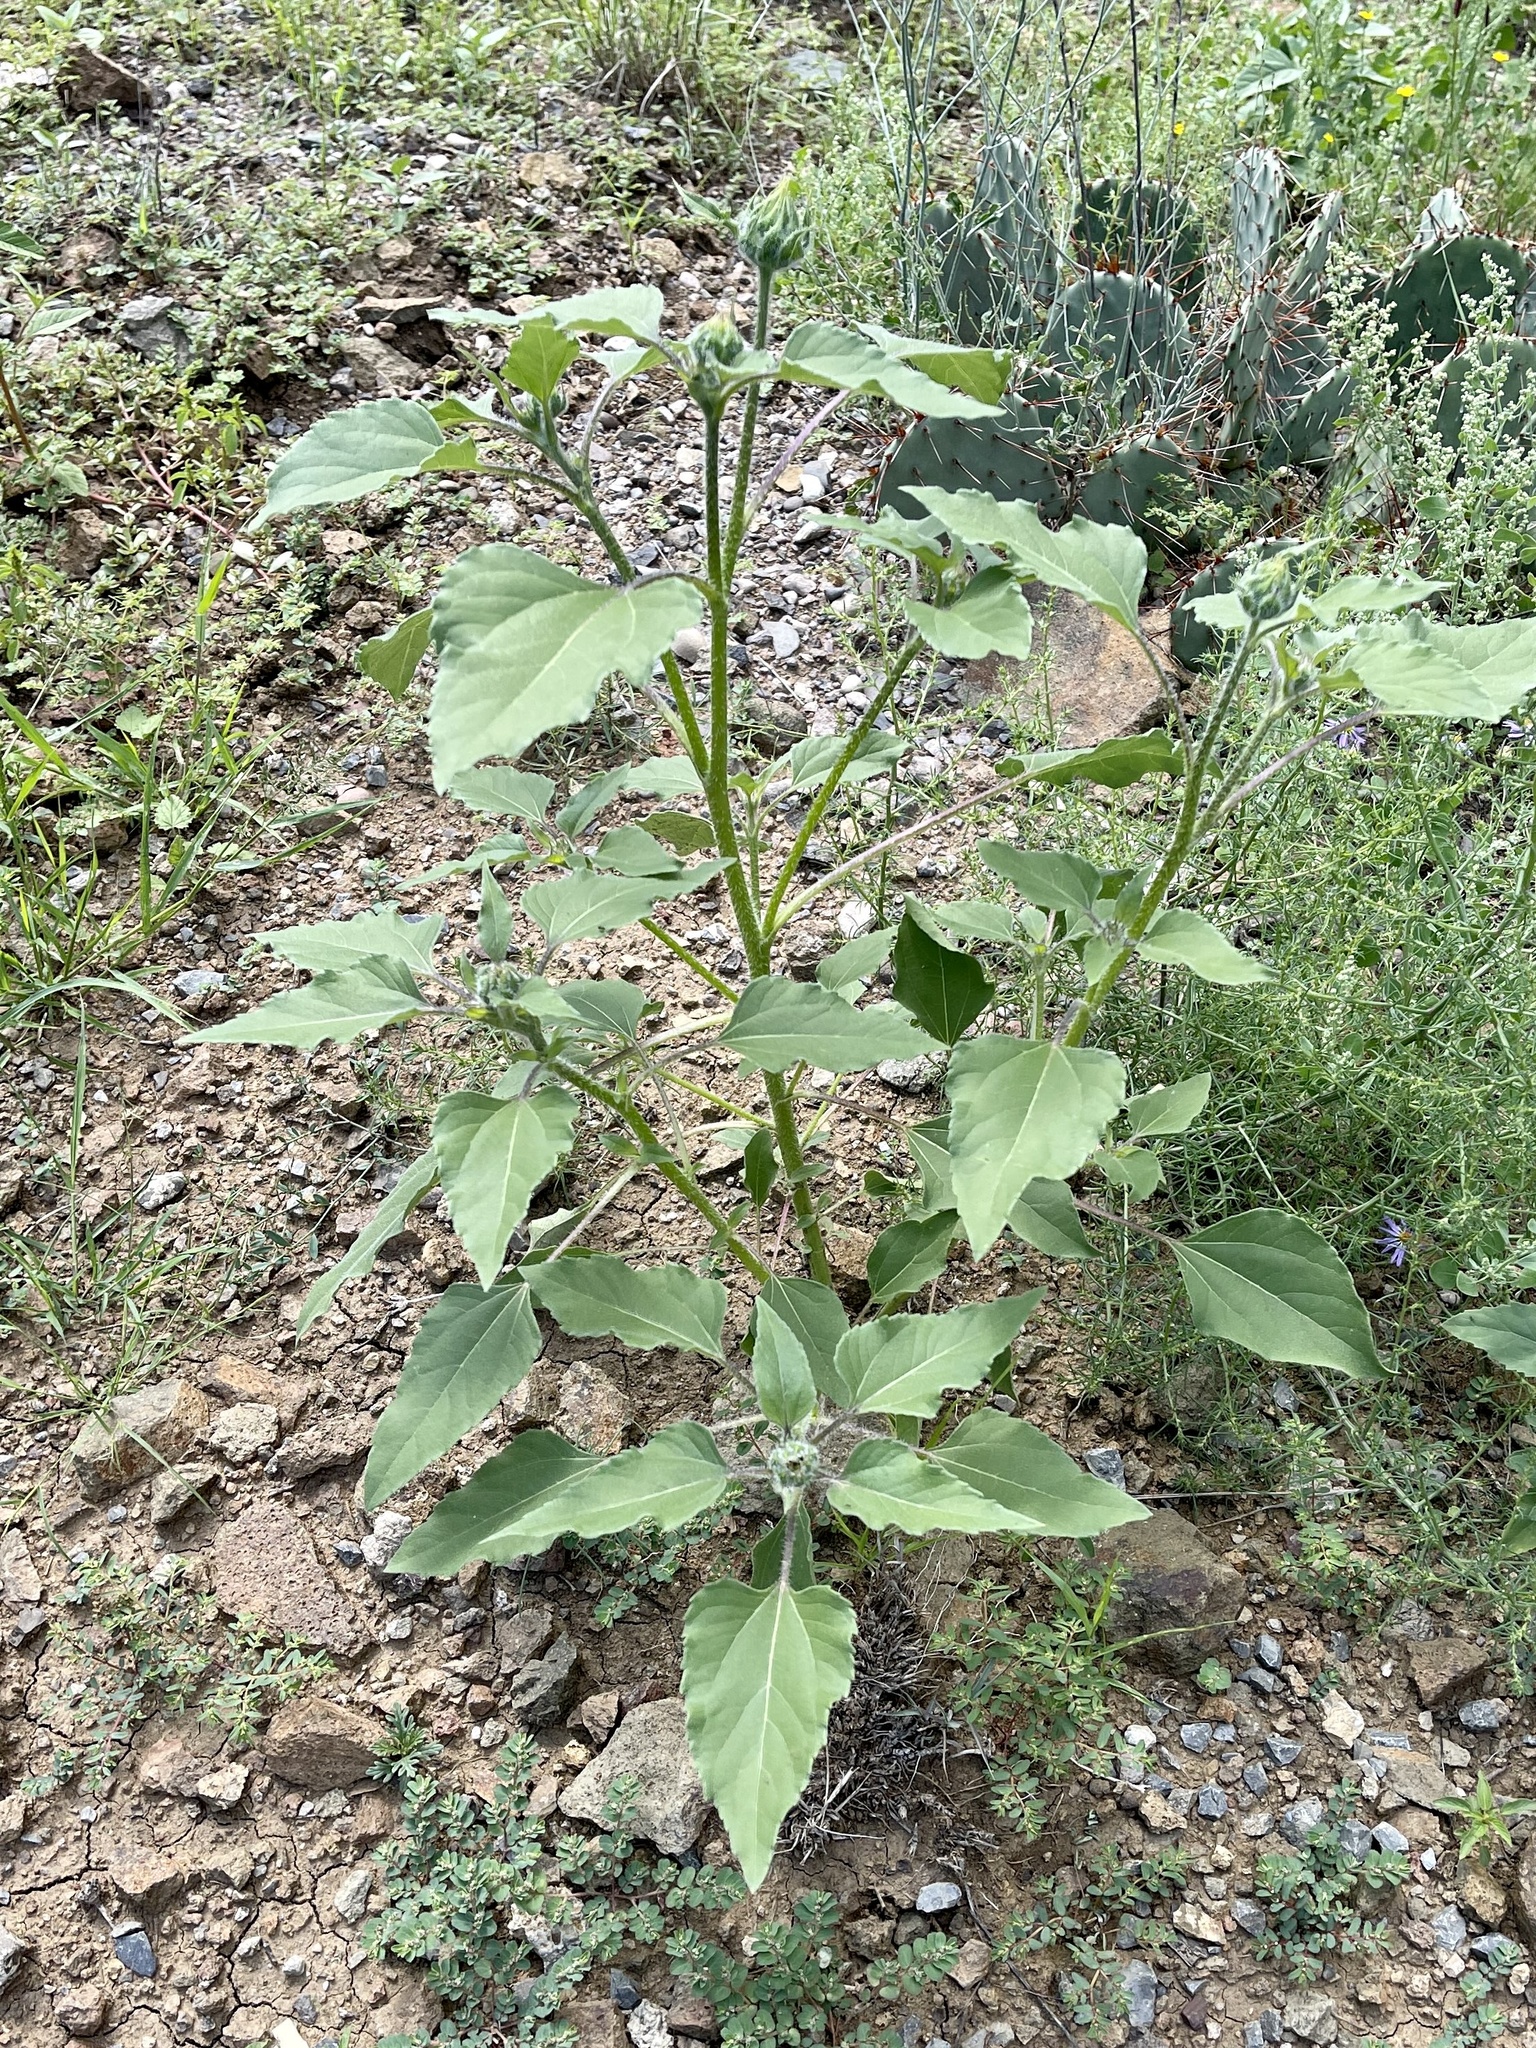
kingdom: Plantae
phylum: Tracheophyta
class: Magnoliopsida
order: Asterales
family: Asteraceae
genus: Helianthus
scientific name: Helianthus annuus
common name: Sunflower
